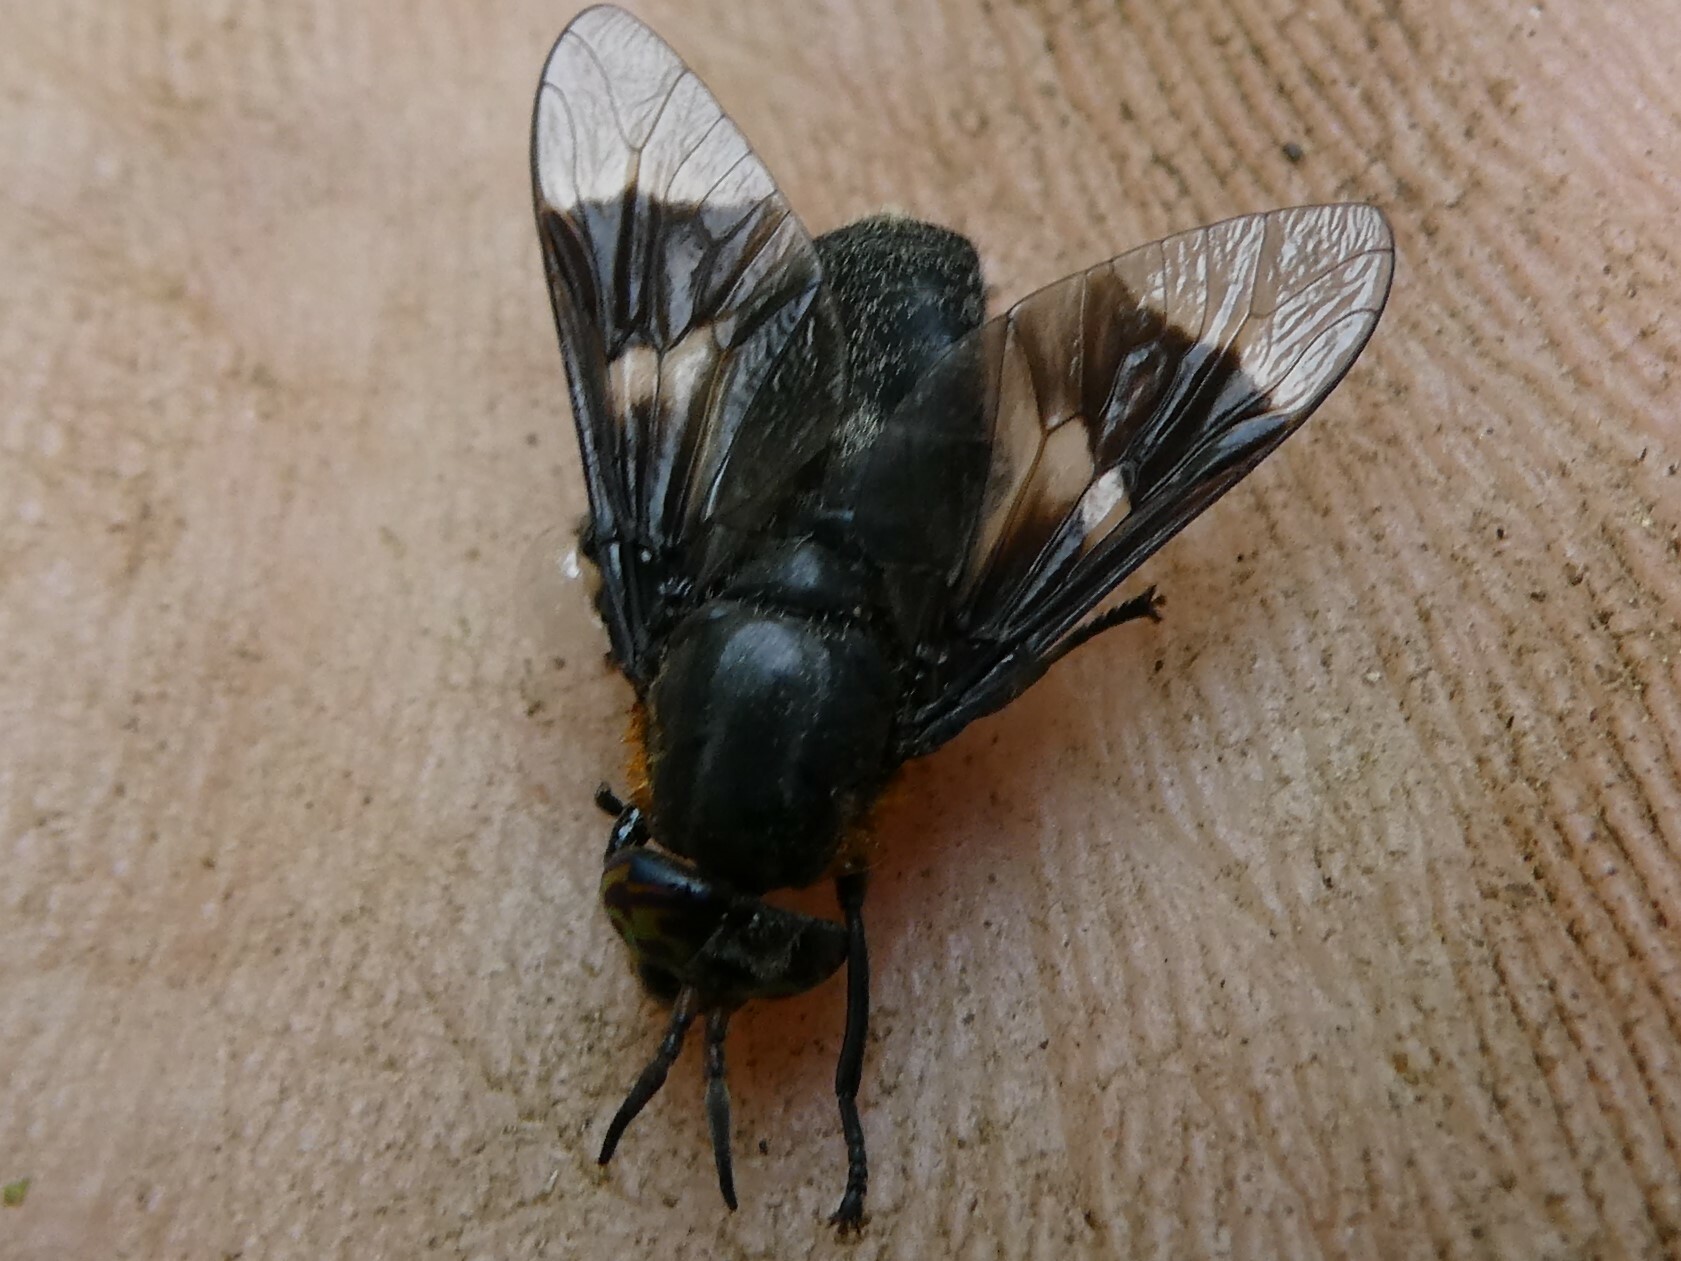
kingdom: Animalia
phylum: Arthropoda
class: Insecta
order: Diptera
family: Tabanidae
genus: Chrysops
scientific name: Chrysops cincticornis
